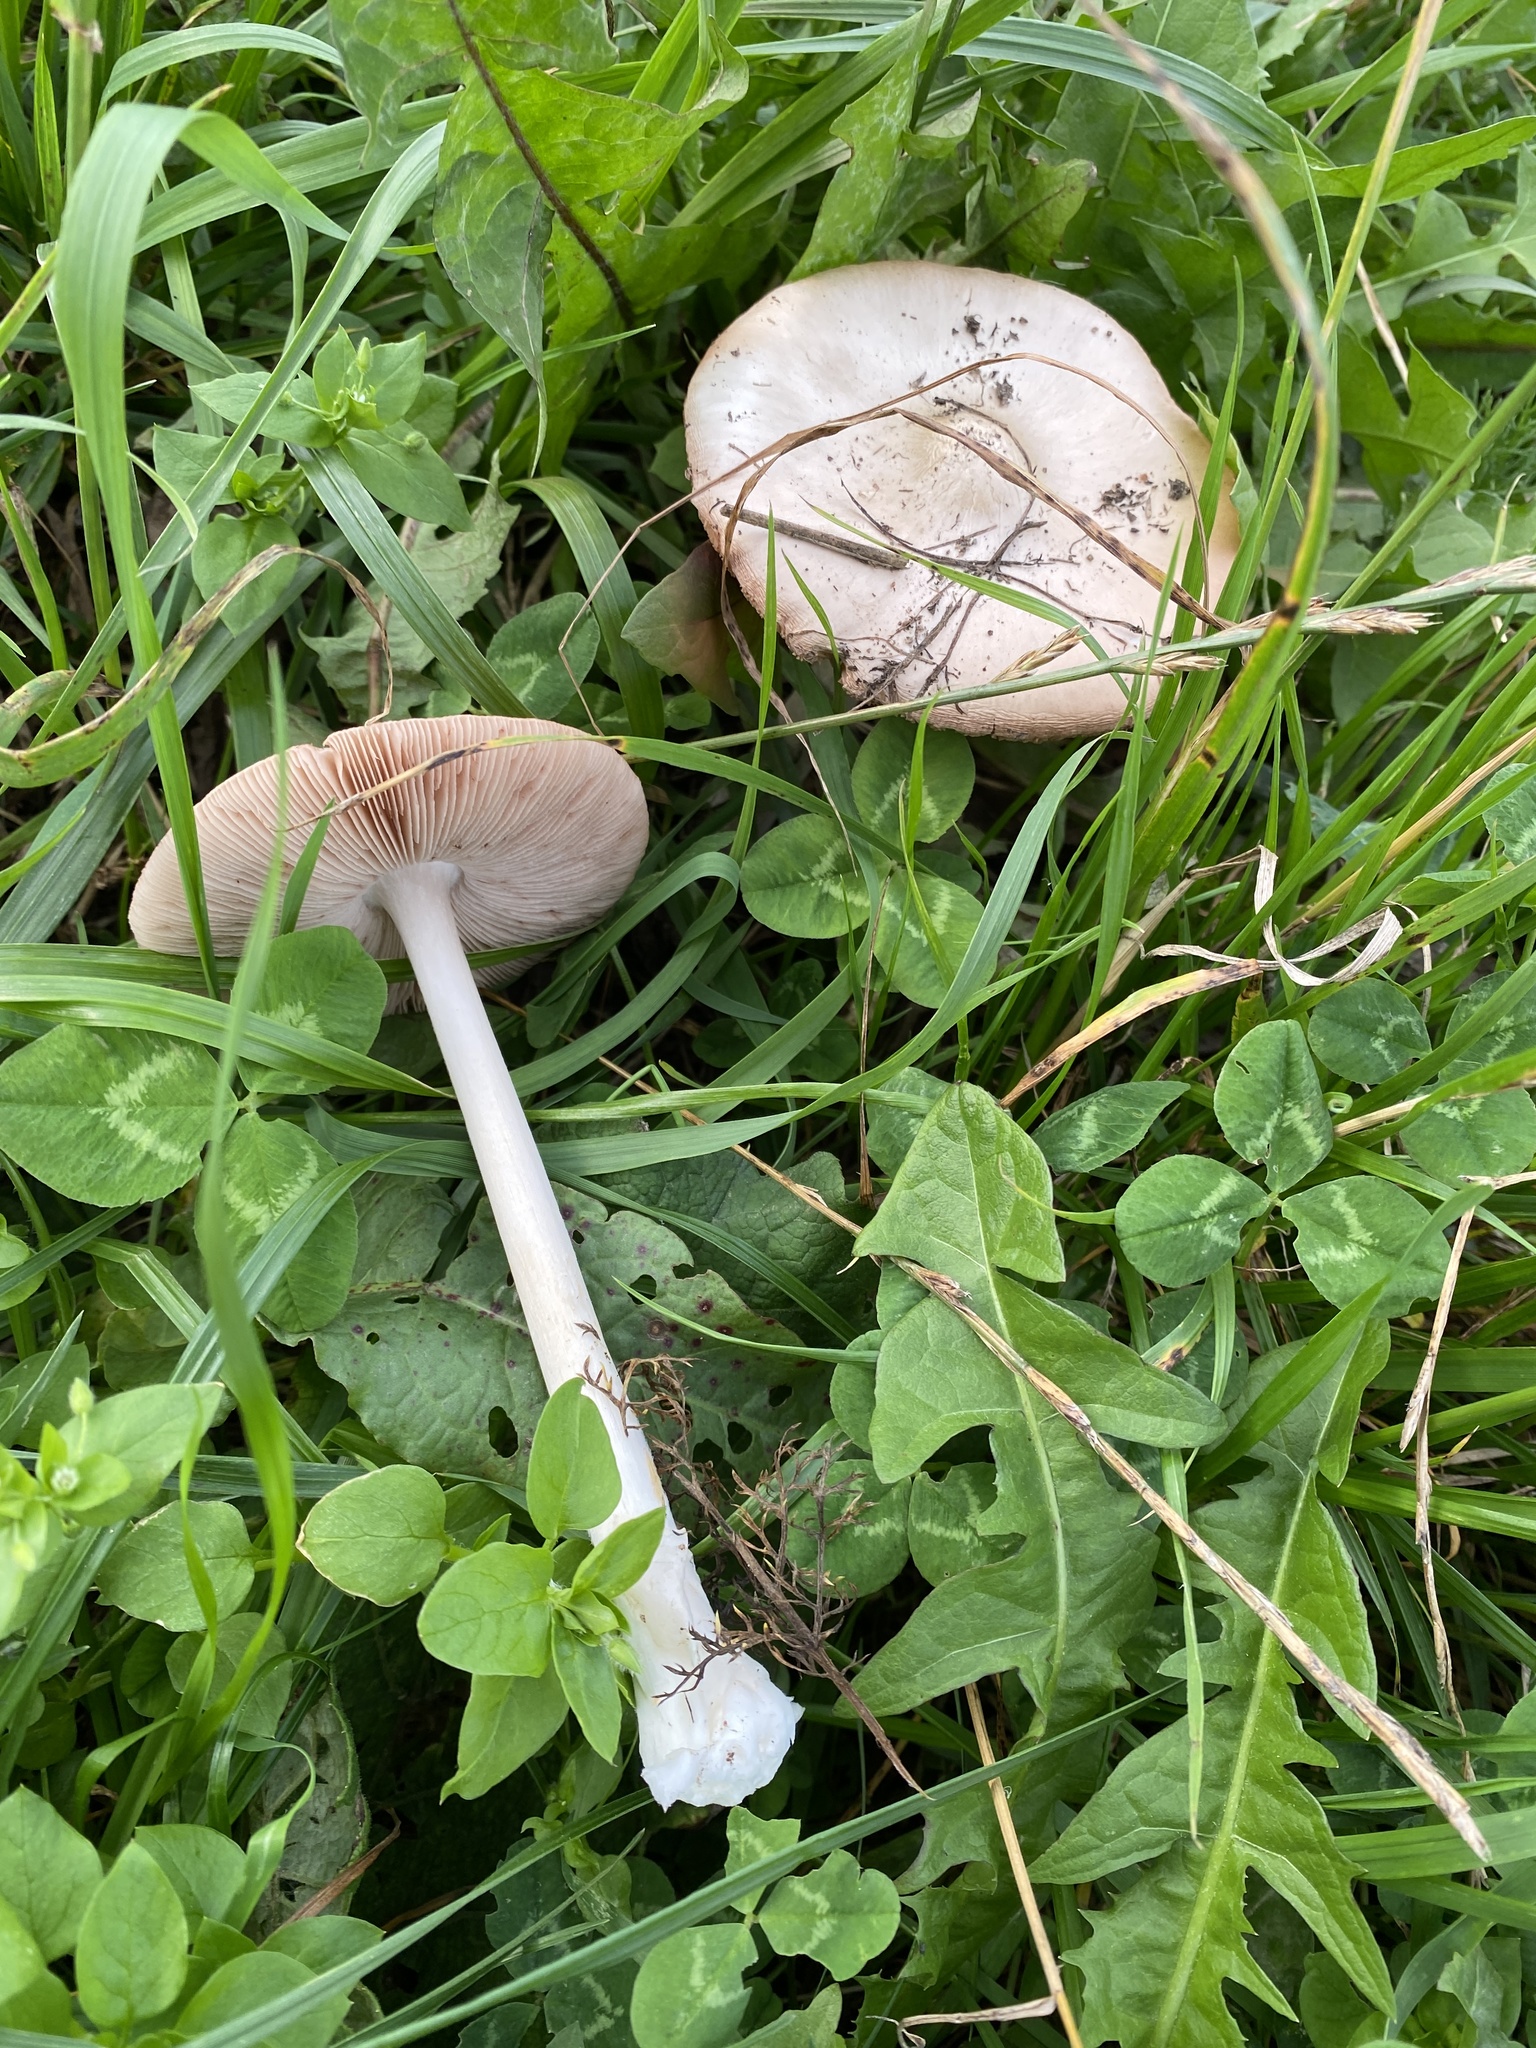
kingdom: Fungi
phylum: Basidiomycota
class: Agaricomycetes
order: Agaricales
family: Pluteaceae
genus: Volvopluteus
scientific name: Volvopluteus gloiocephalus
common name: Stubble rosegill
